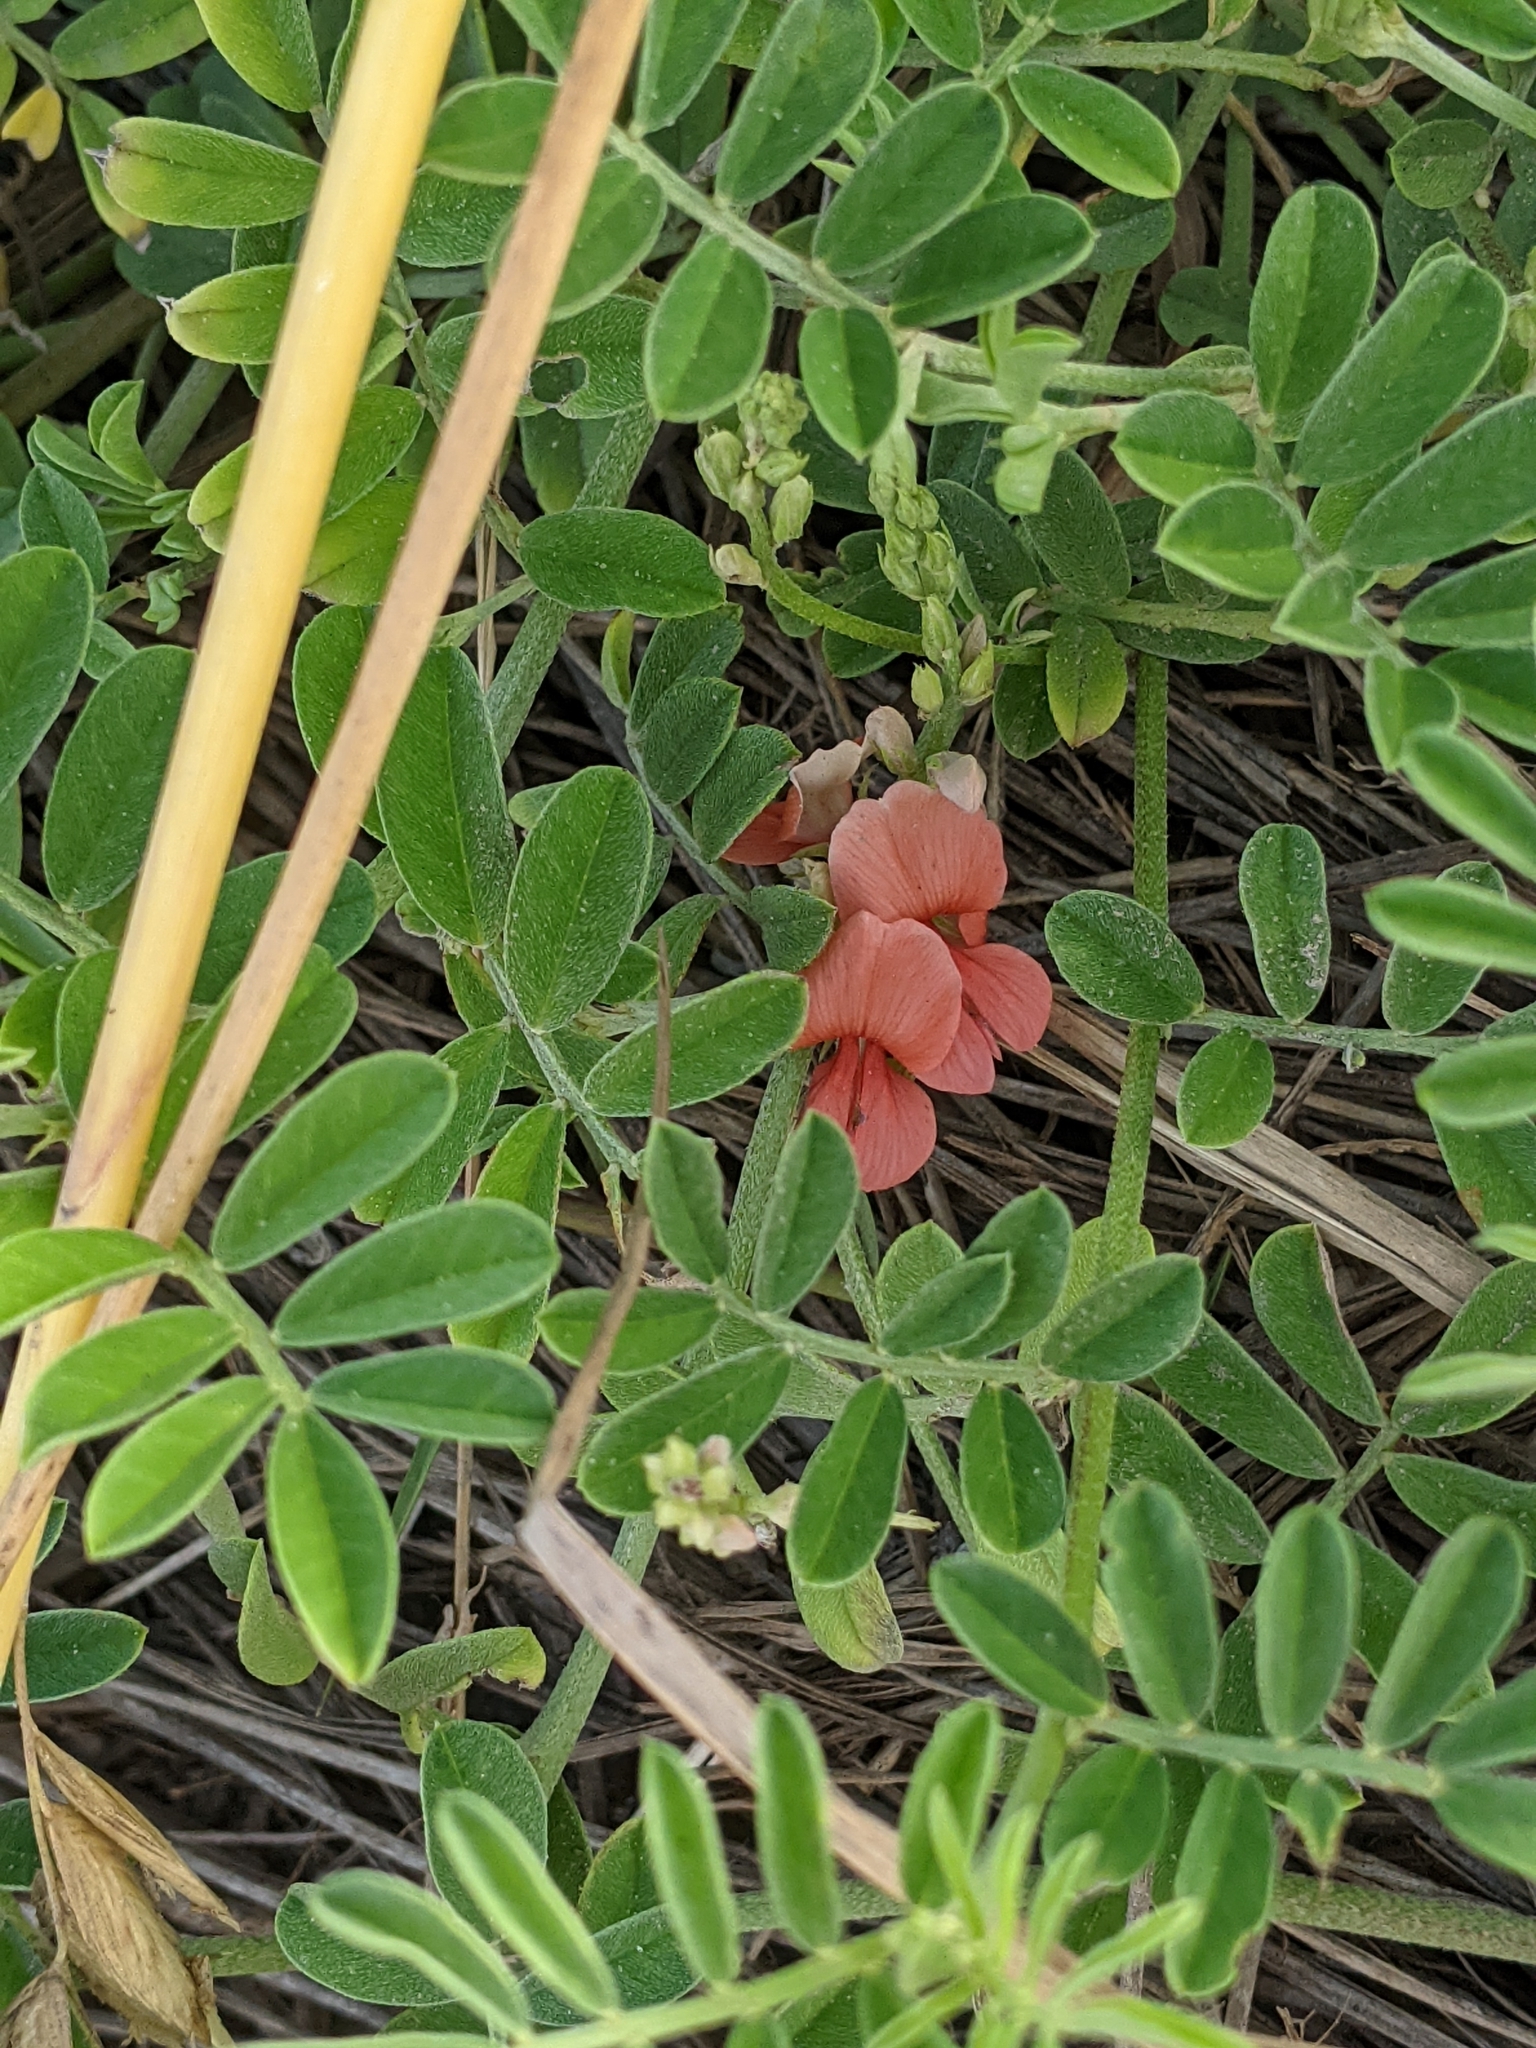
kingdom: Plantae
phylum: Tracheophyta
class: Magnoliopsida
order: Fabales
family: Fabaceae
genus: Indigofera
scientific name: Indigofera miniata
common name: Coast indigo
